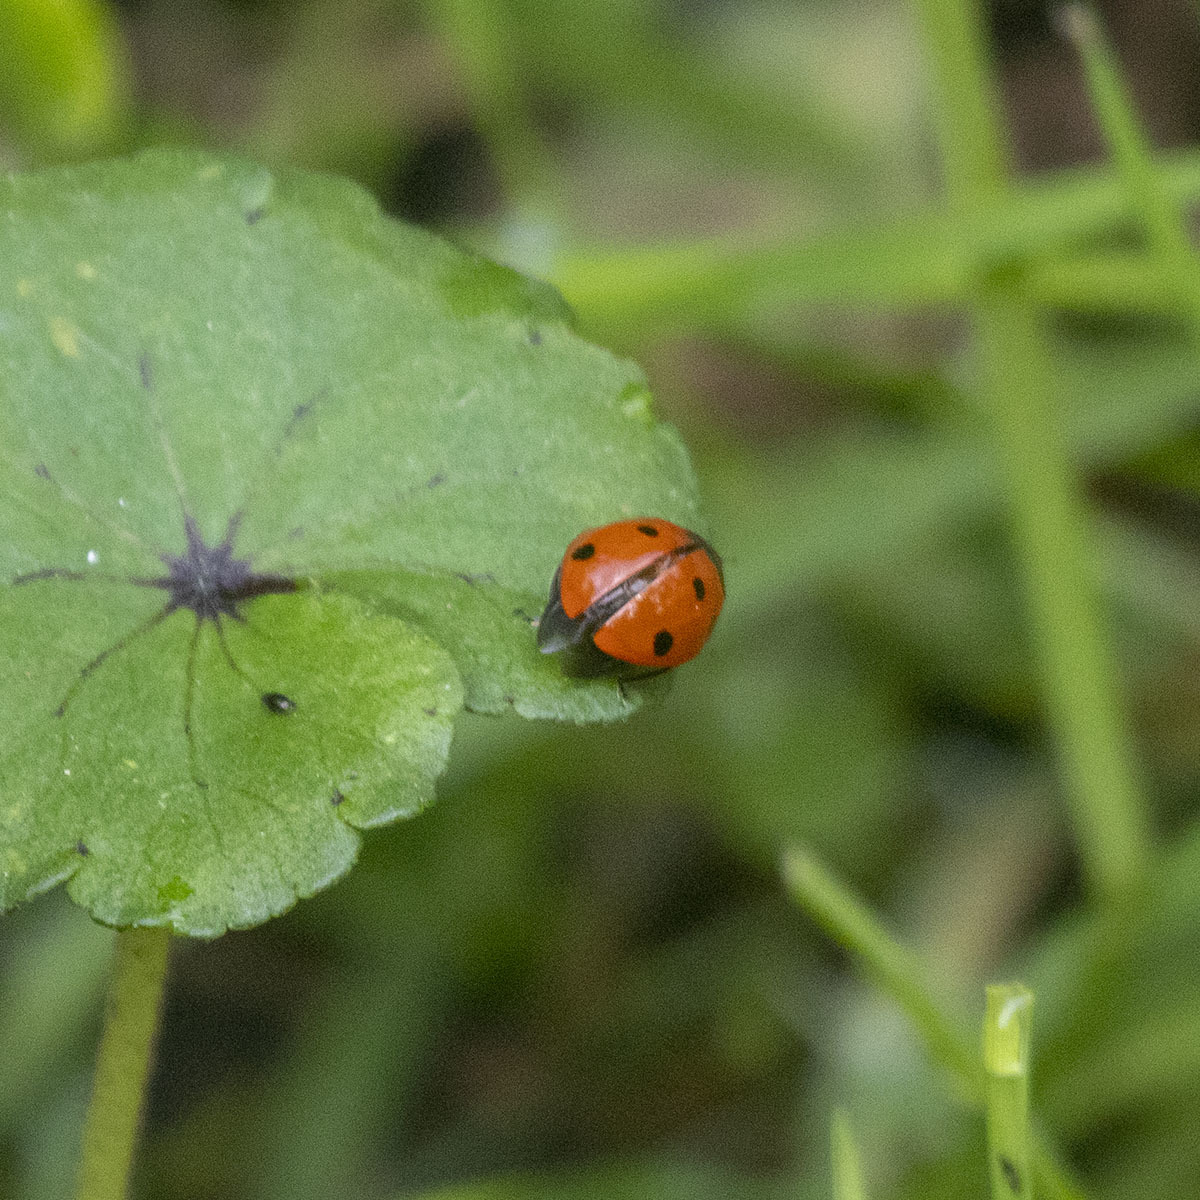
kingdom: Animalia
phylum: Arthropoda
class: Insecta
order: Coleoptera
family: Coccinellidae
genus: Coccinella
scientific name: Coccinella septempunctata
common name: Sevenspotted lady beetle
